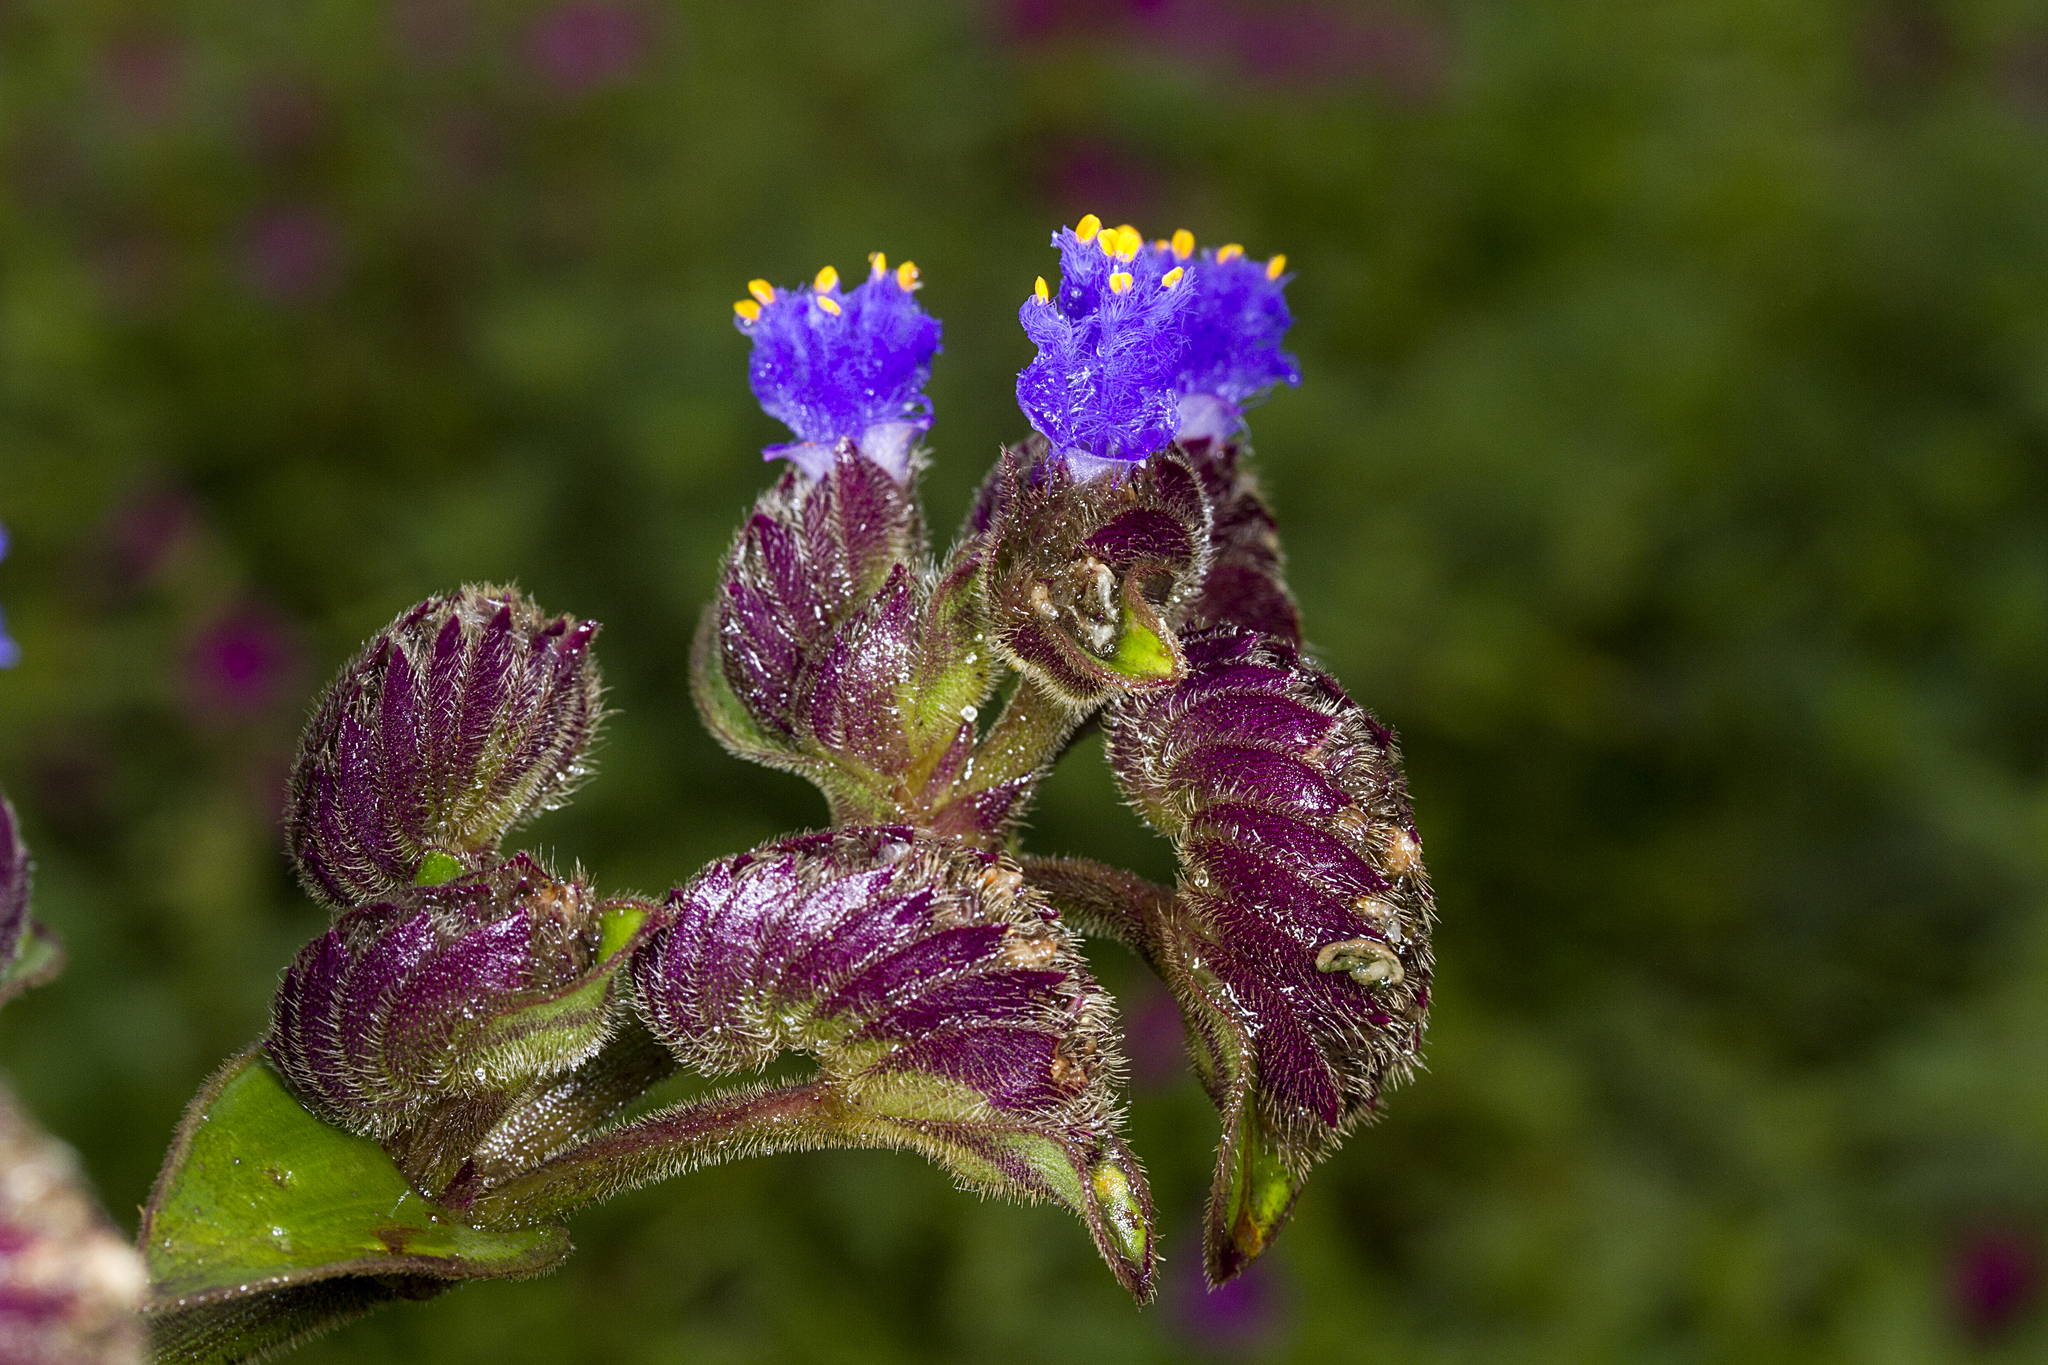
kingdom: Plantae
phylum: Tracheophyta
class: Liliopsida
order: Commelinales
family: Commelinaceae
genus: Cyanotis
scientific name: Cyanotis tuberosa
